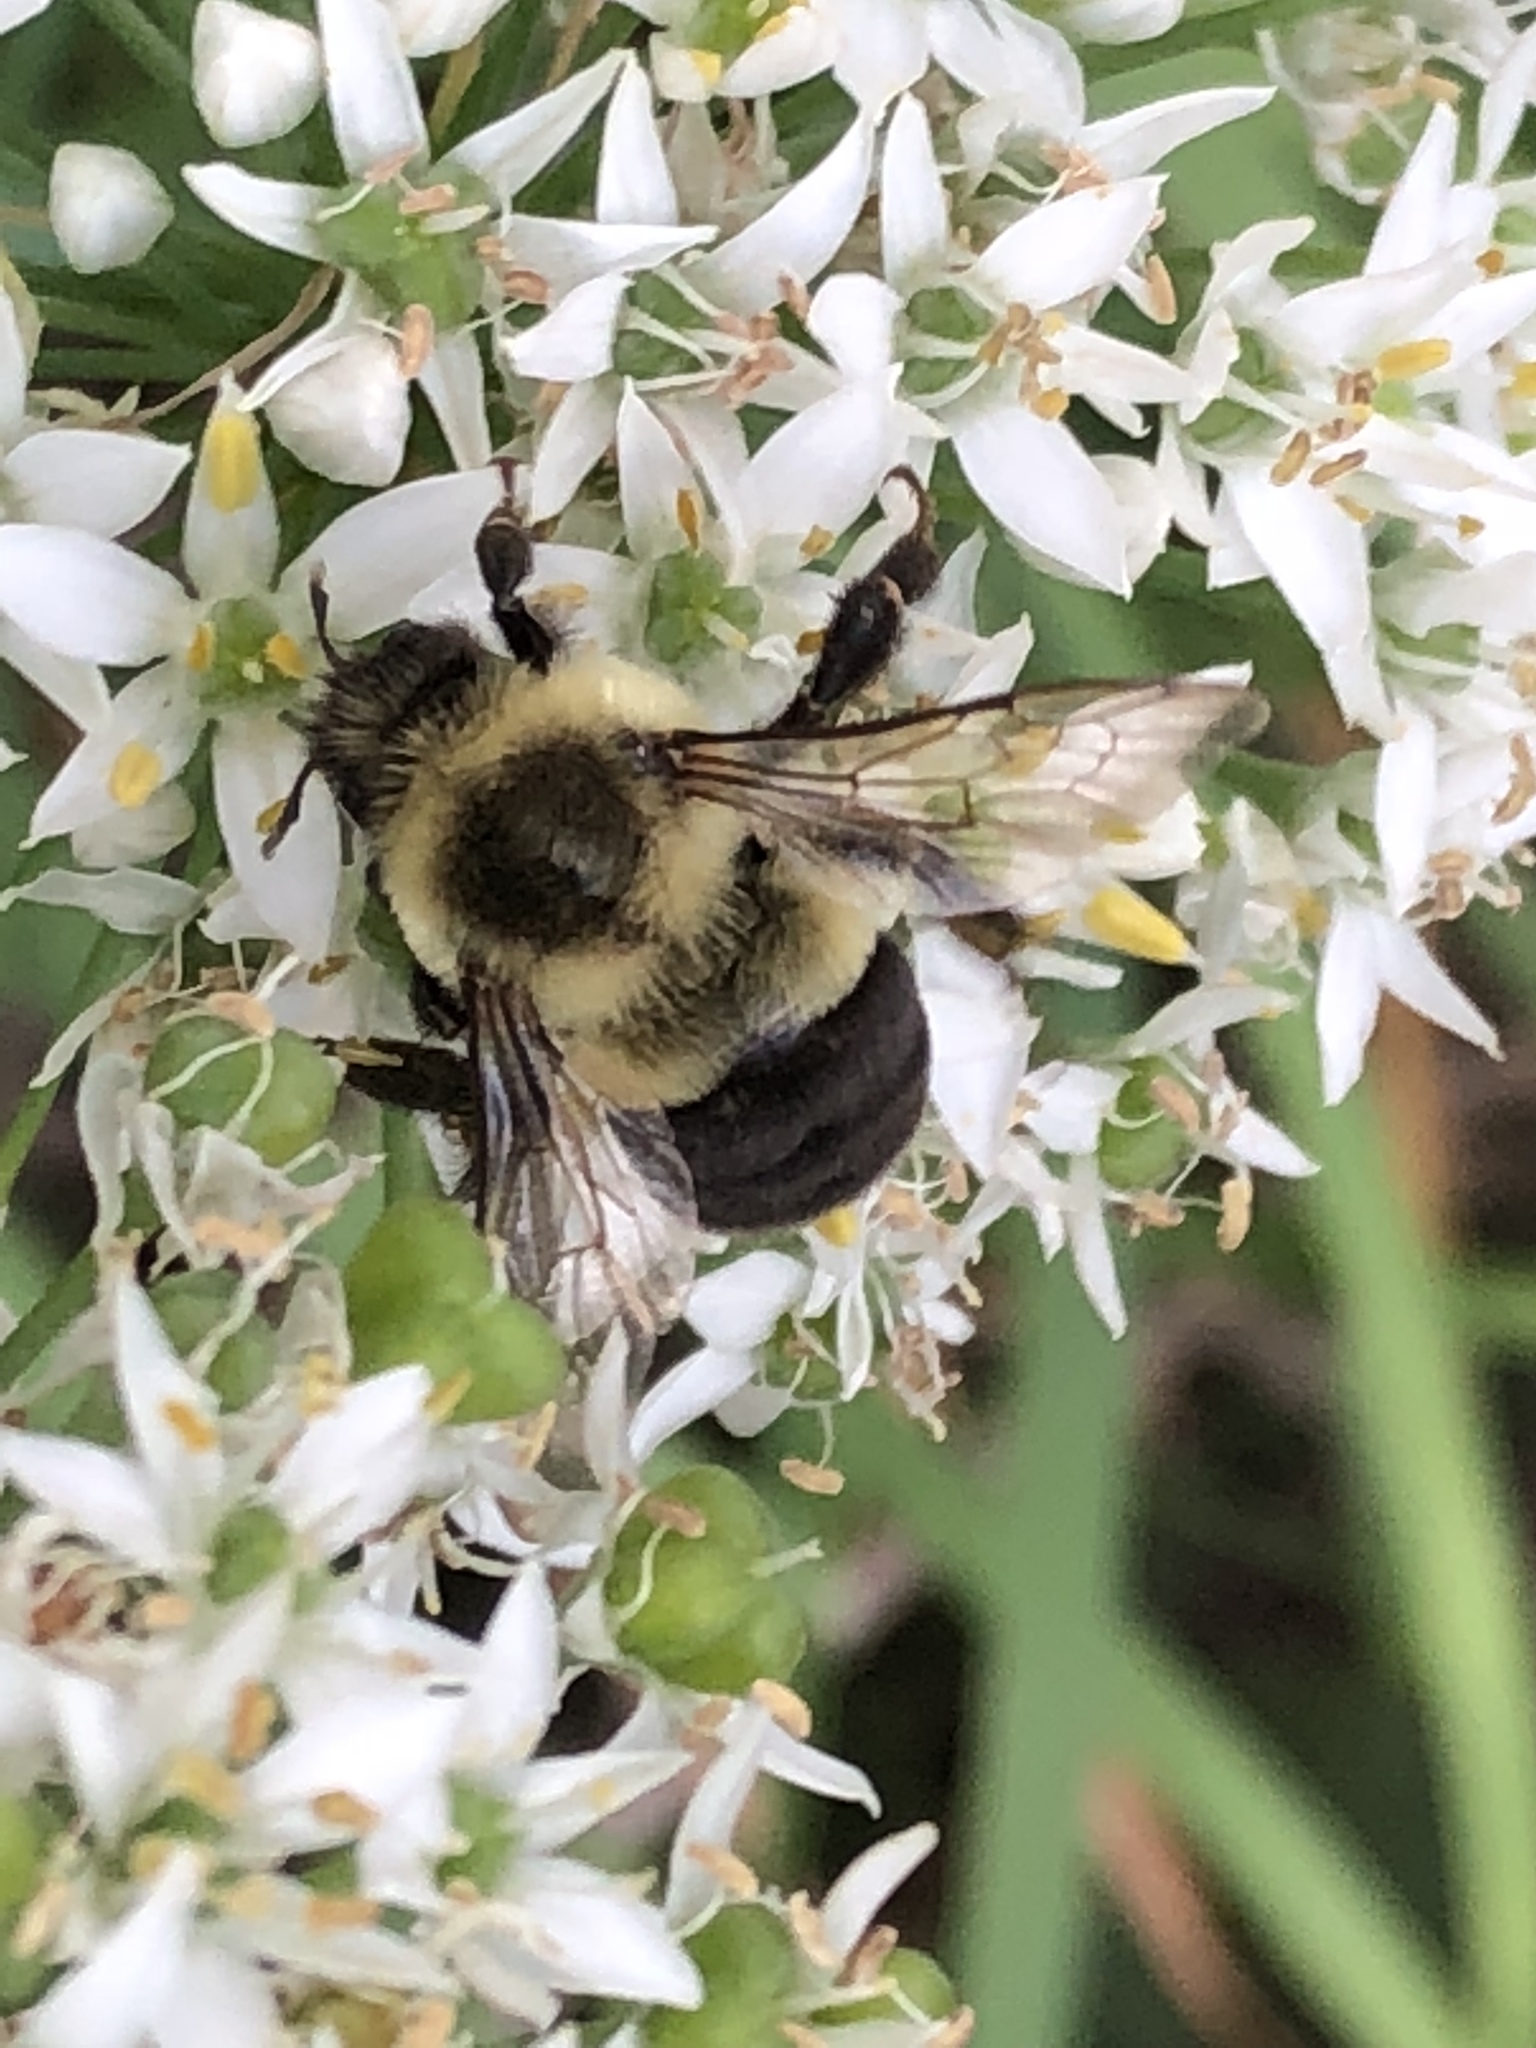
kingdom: Animalia
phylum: Arthropoda
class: Insecta
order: Hymenoptera
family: Apidae
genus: Bombus
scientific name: Bombus impatiens
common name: Common eastern bumble bee
